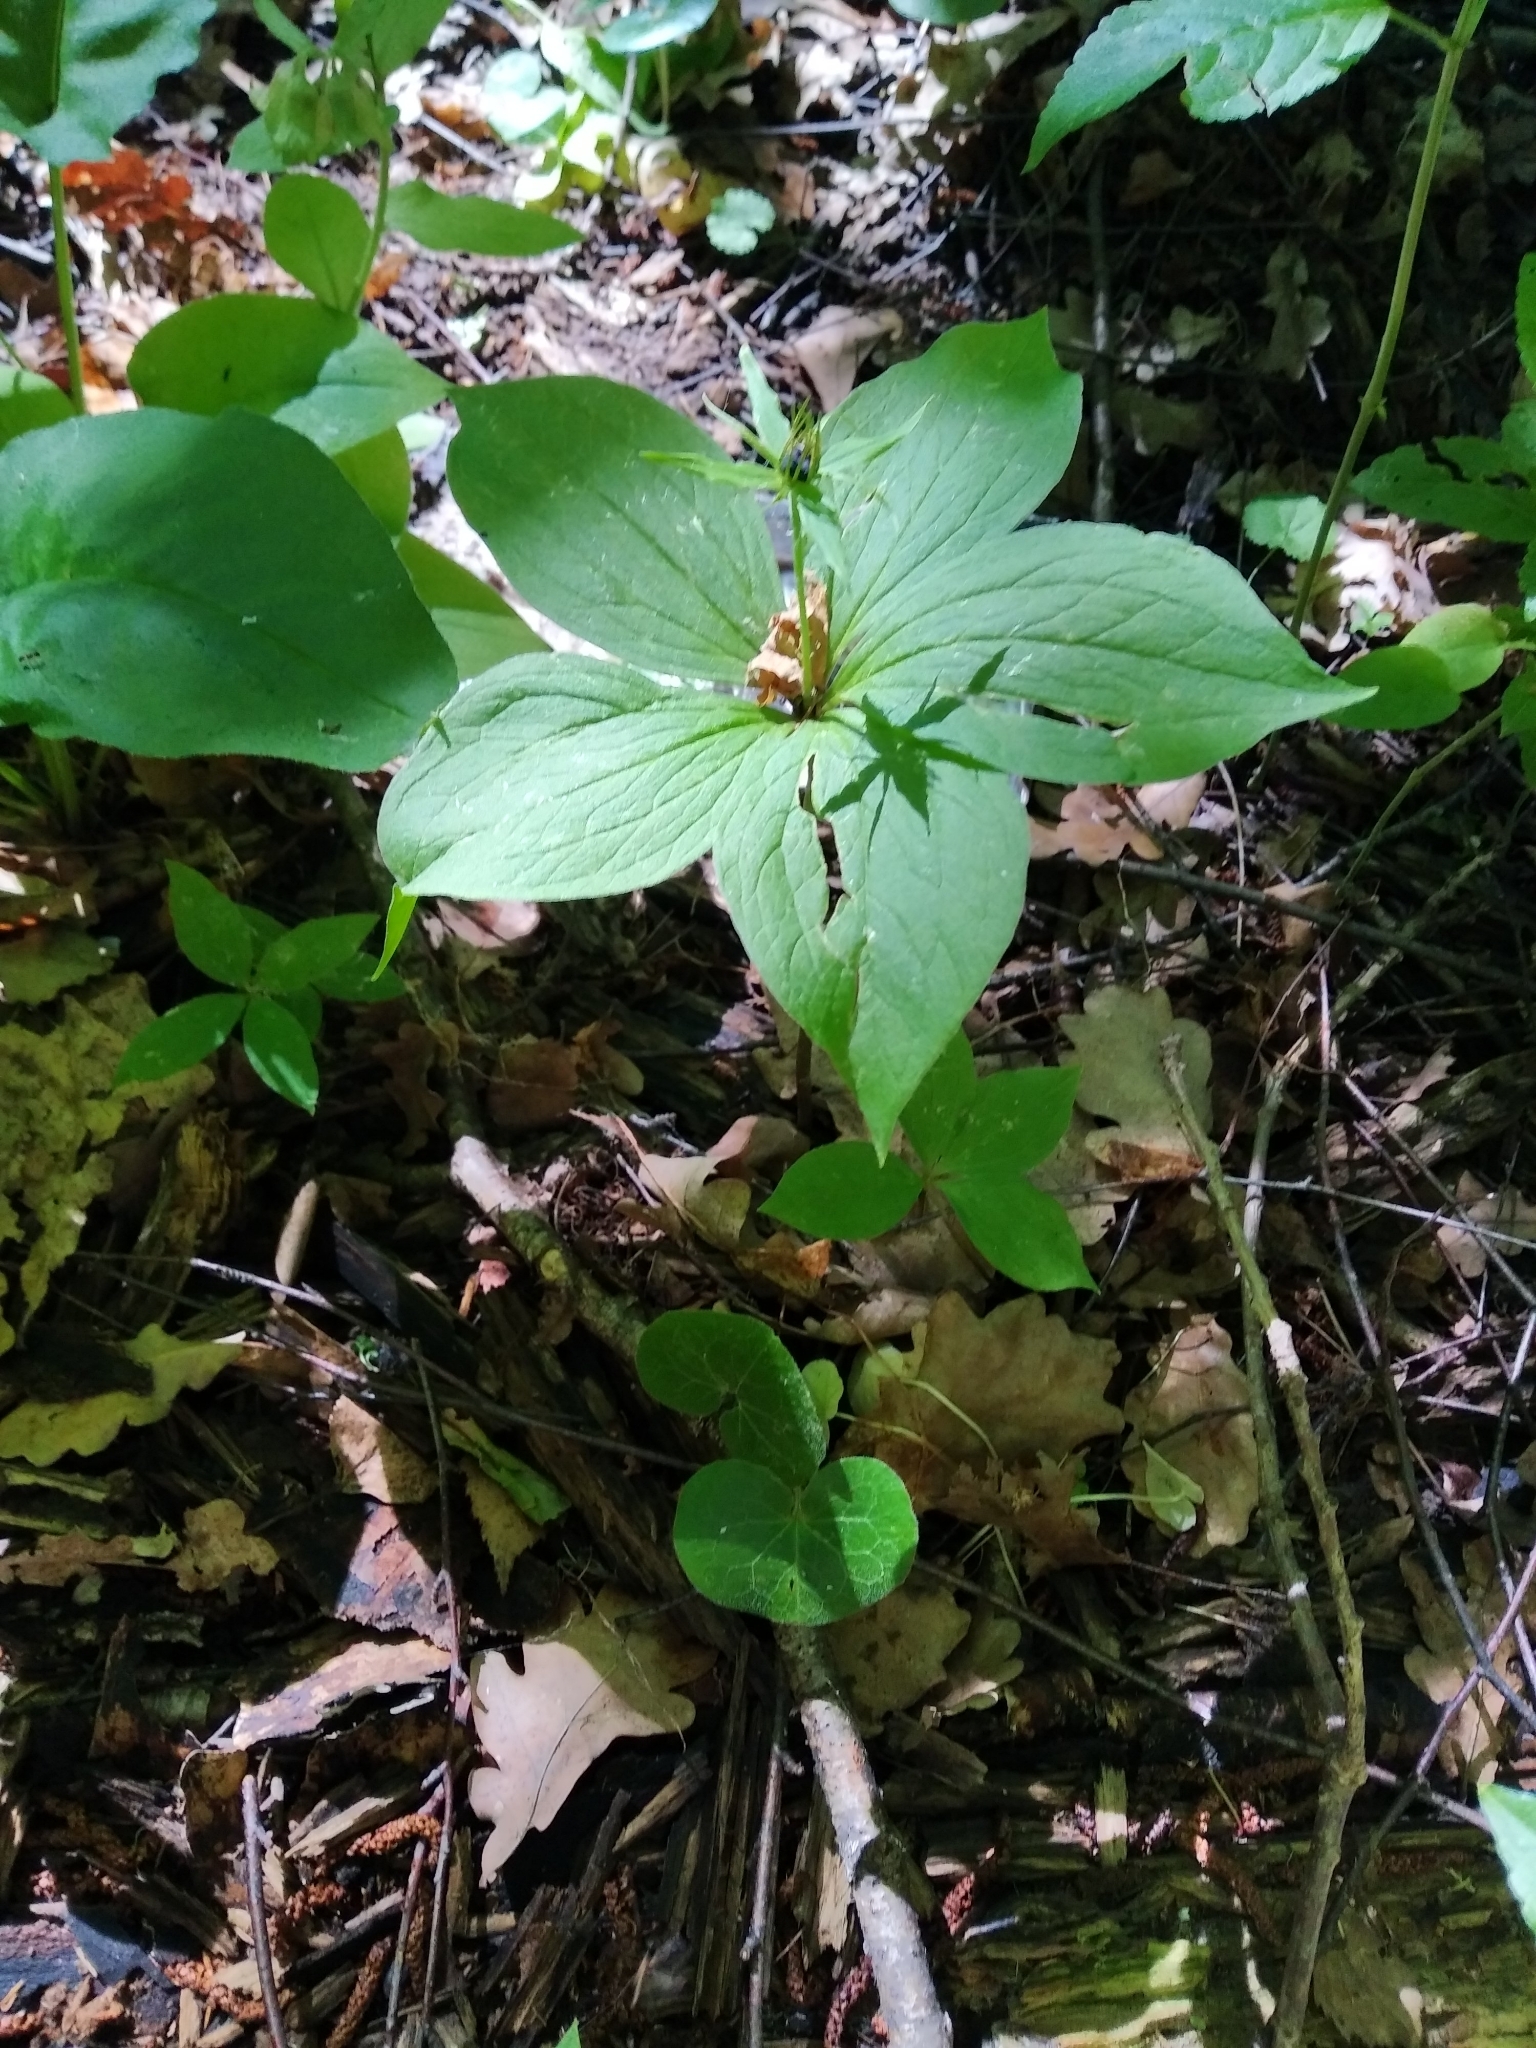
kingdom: Plantae
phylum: Tracheophyta
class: Liliopsida
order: Liliales
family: Melanthiaceae
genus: Paris
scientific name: Paris quadrifolia
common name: Herb-paris
